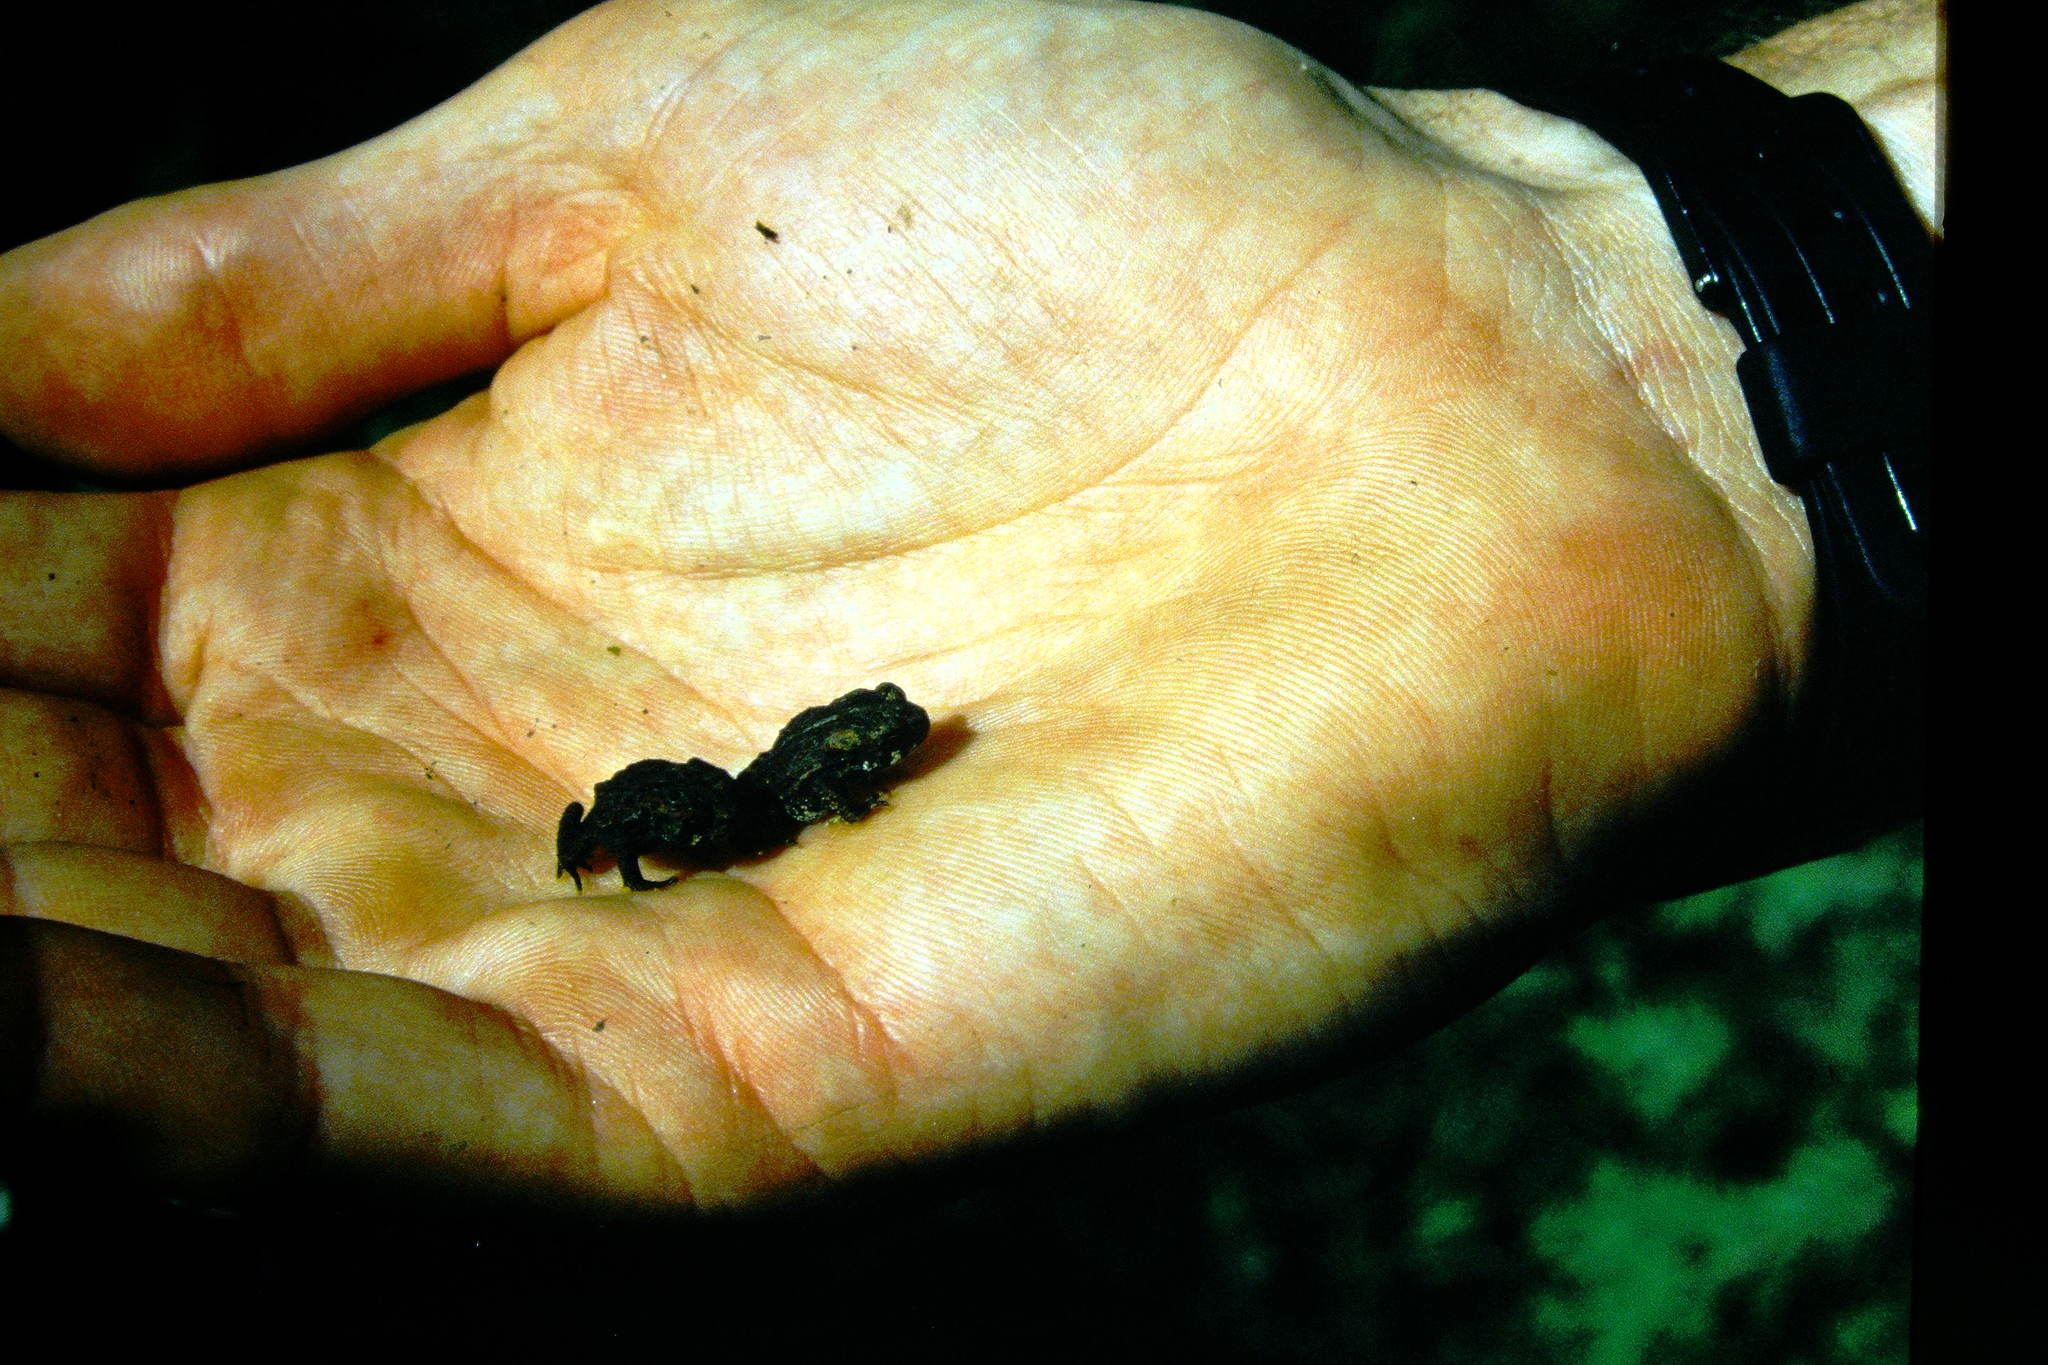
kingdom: Animalia
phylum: Chordata
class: Amphibia
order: Anura
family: Bufonidae
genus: Anaxyrus
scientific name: Anaxyrus americanus
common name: American toad
